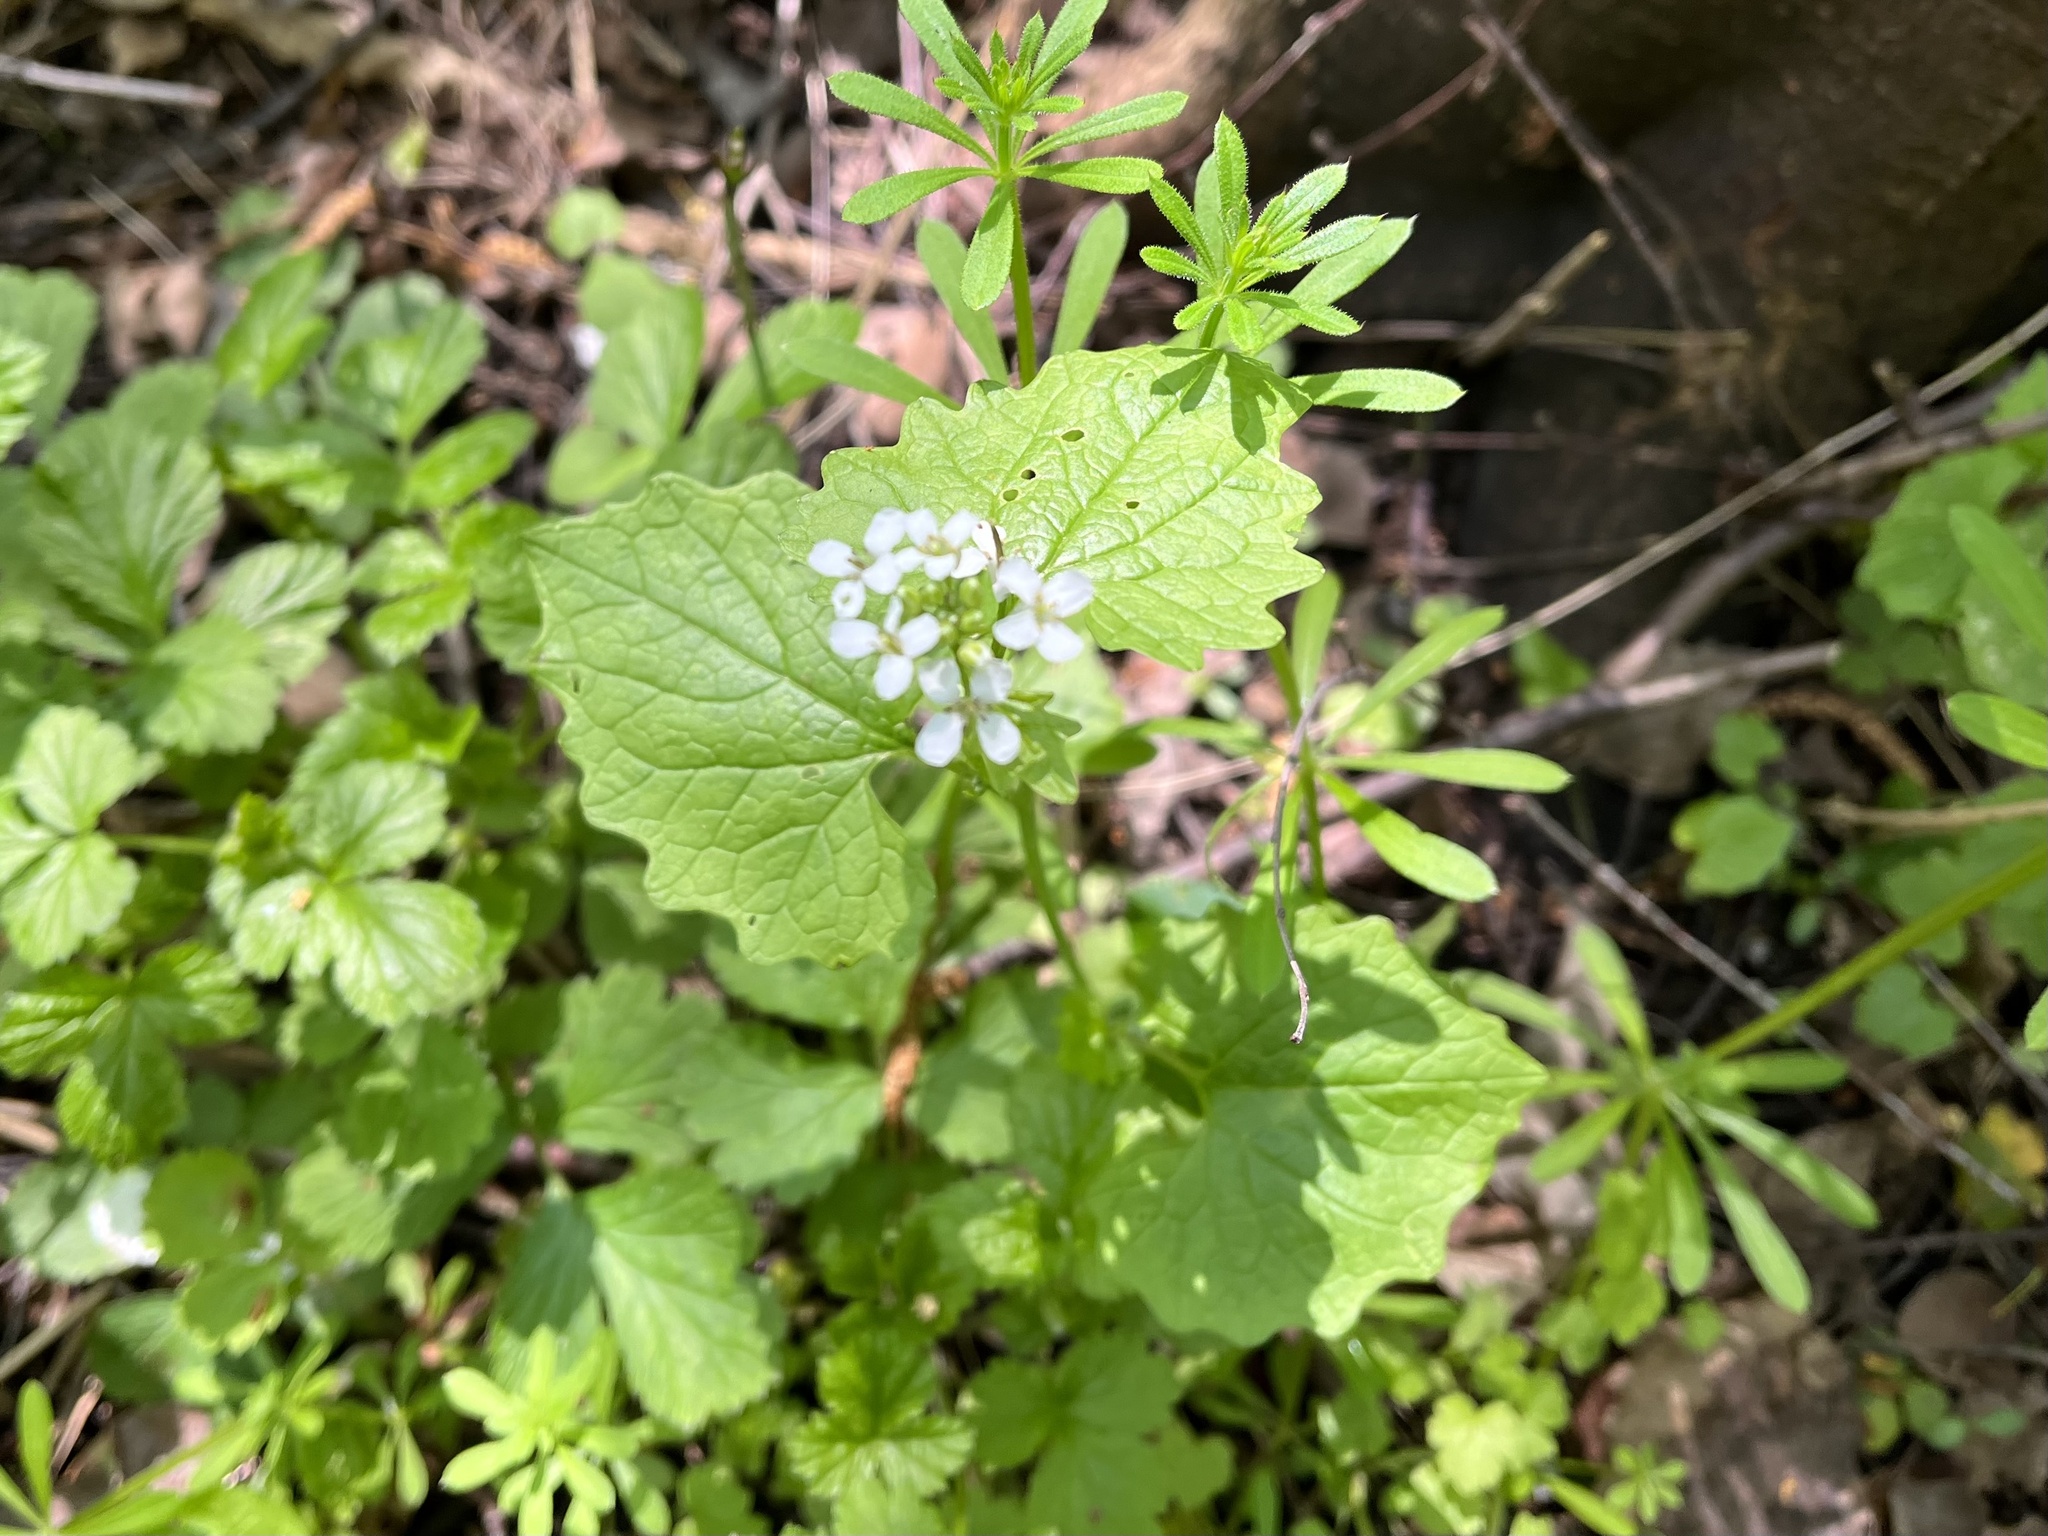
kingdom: Plantae
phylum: Tracheophyta
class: Magnoliopsida
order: Brassicales
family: Brassicaceae
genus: Alliaria
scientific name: Alliaria petiolata
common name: Garlic mustard
